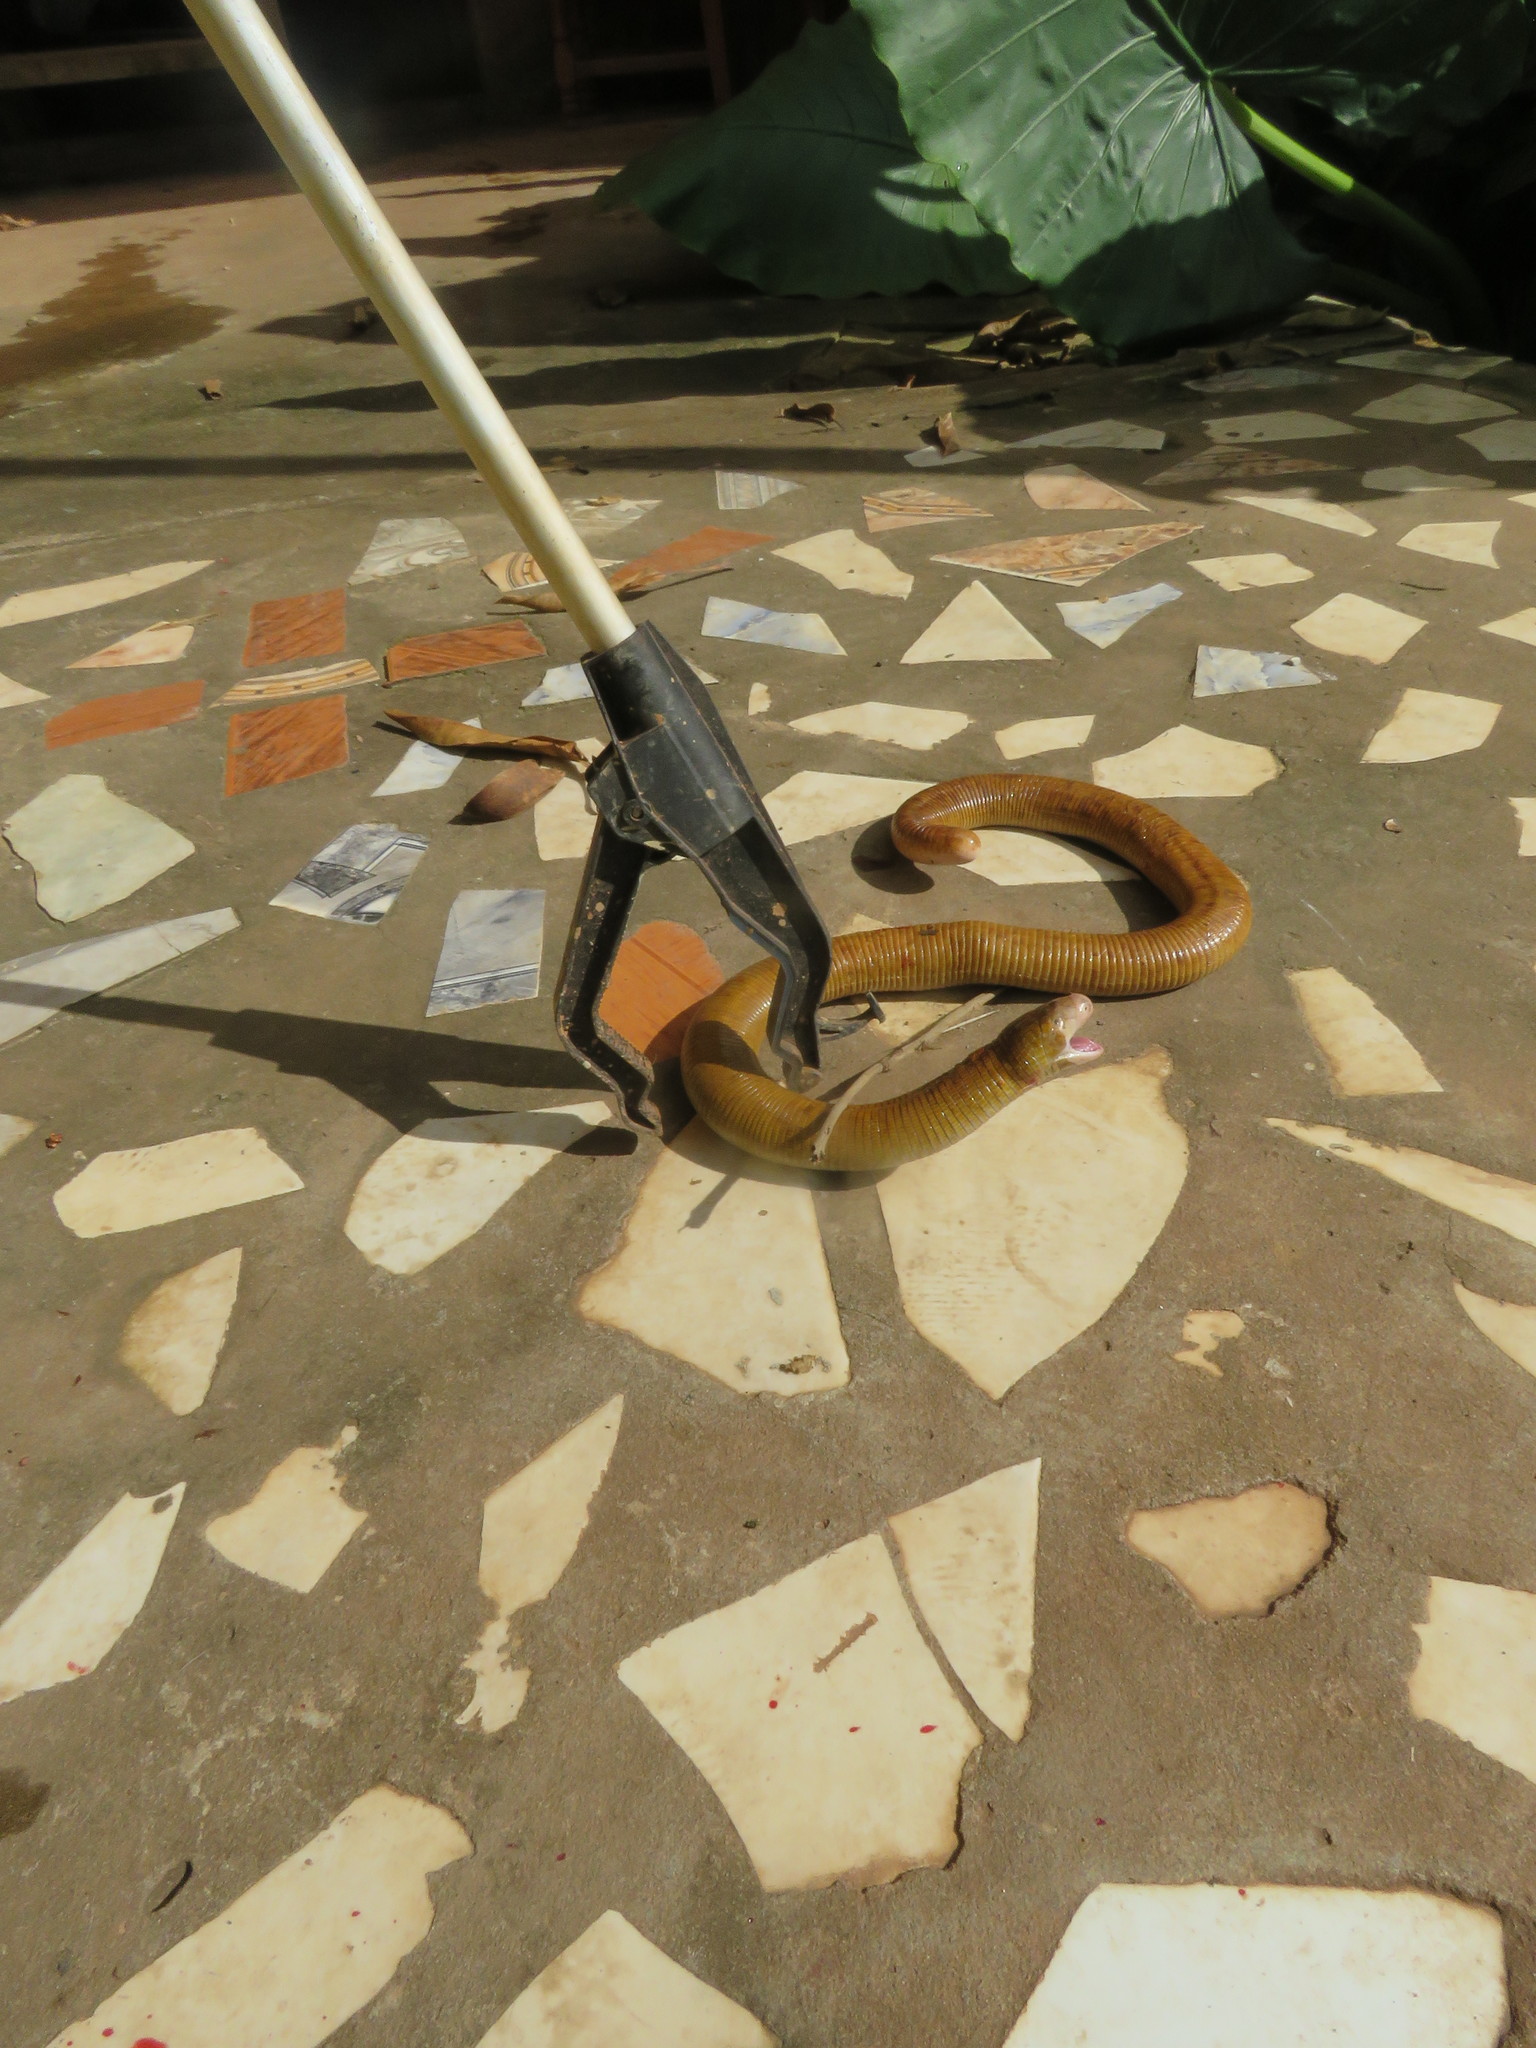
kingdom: Animalia
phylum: Chordata
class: Squamata
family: Amphisbaenidae
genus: Amphisbaena
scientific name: Amphisbaena alba
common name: Red worm lizard
